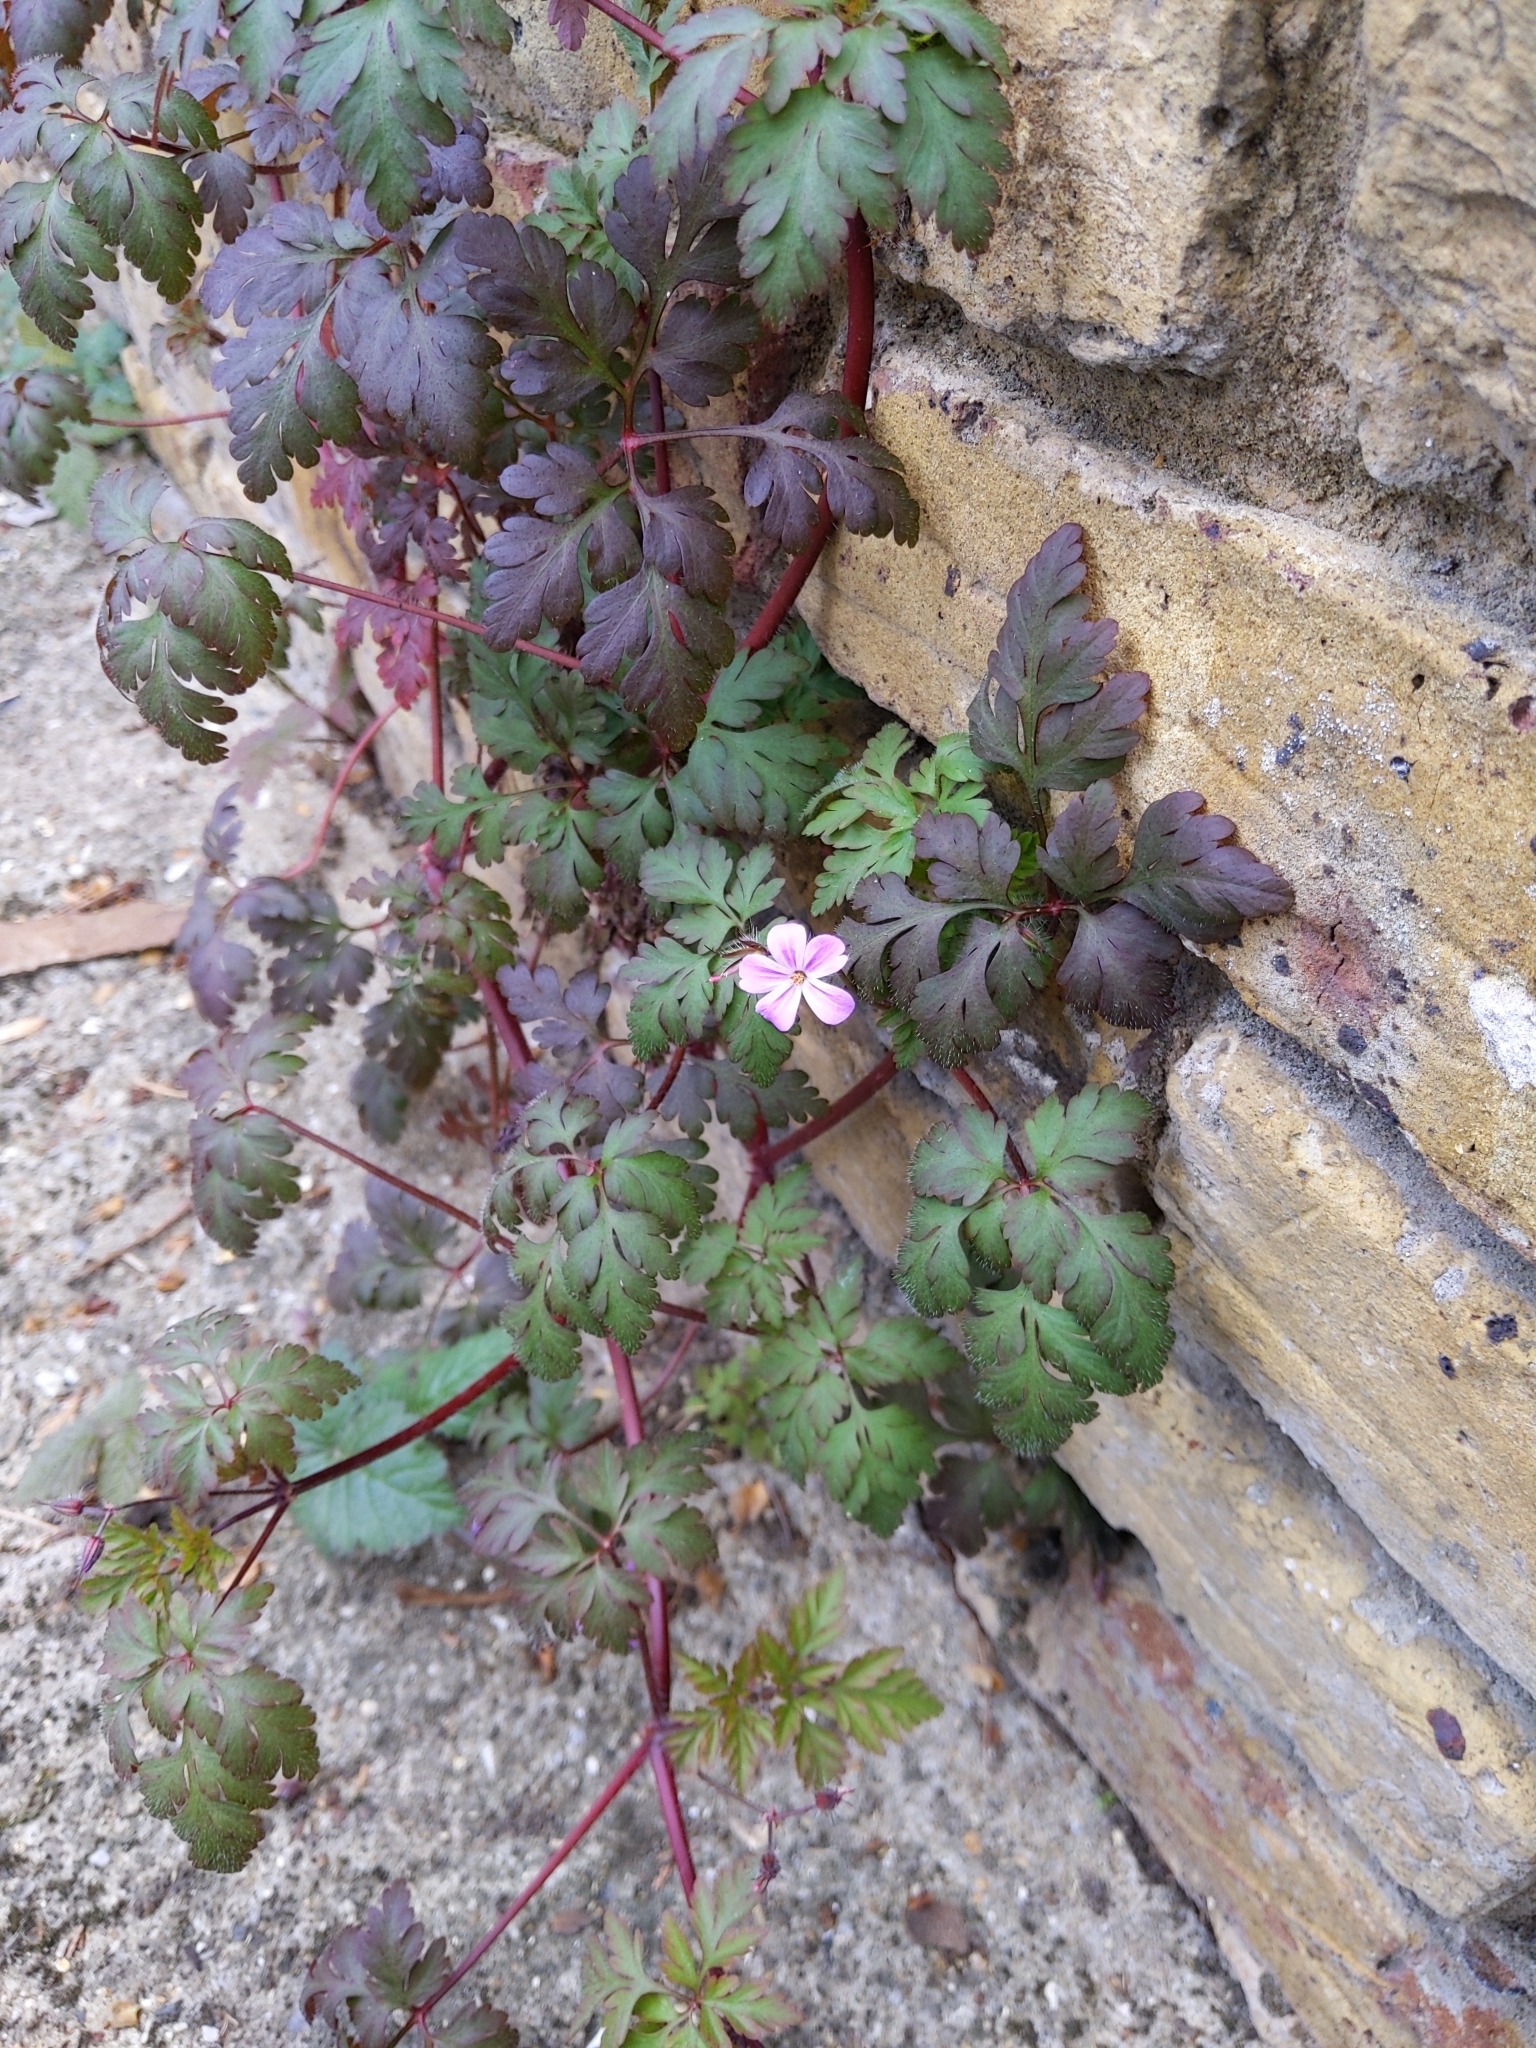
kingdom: Plantae
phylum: Tracheophyta
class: Magnoliopsida
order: Geraniales
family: Geraniaceae
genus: Geranium
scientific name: Geranium robertianum
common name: Herb-robert
